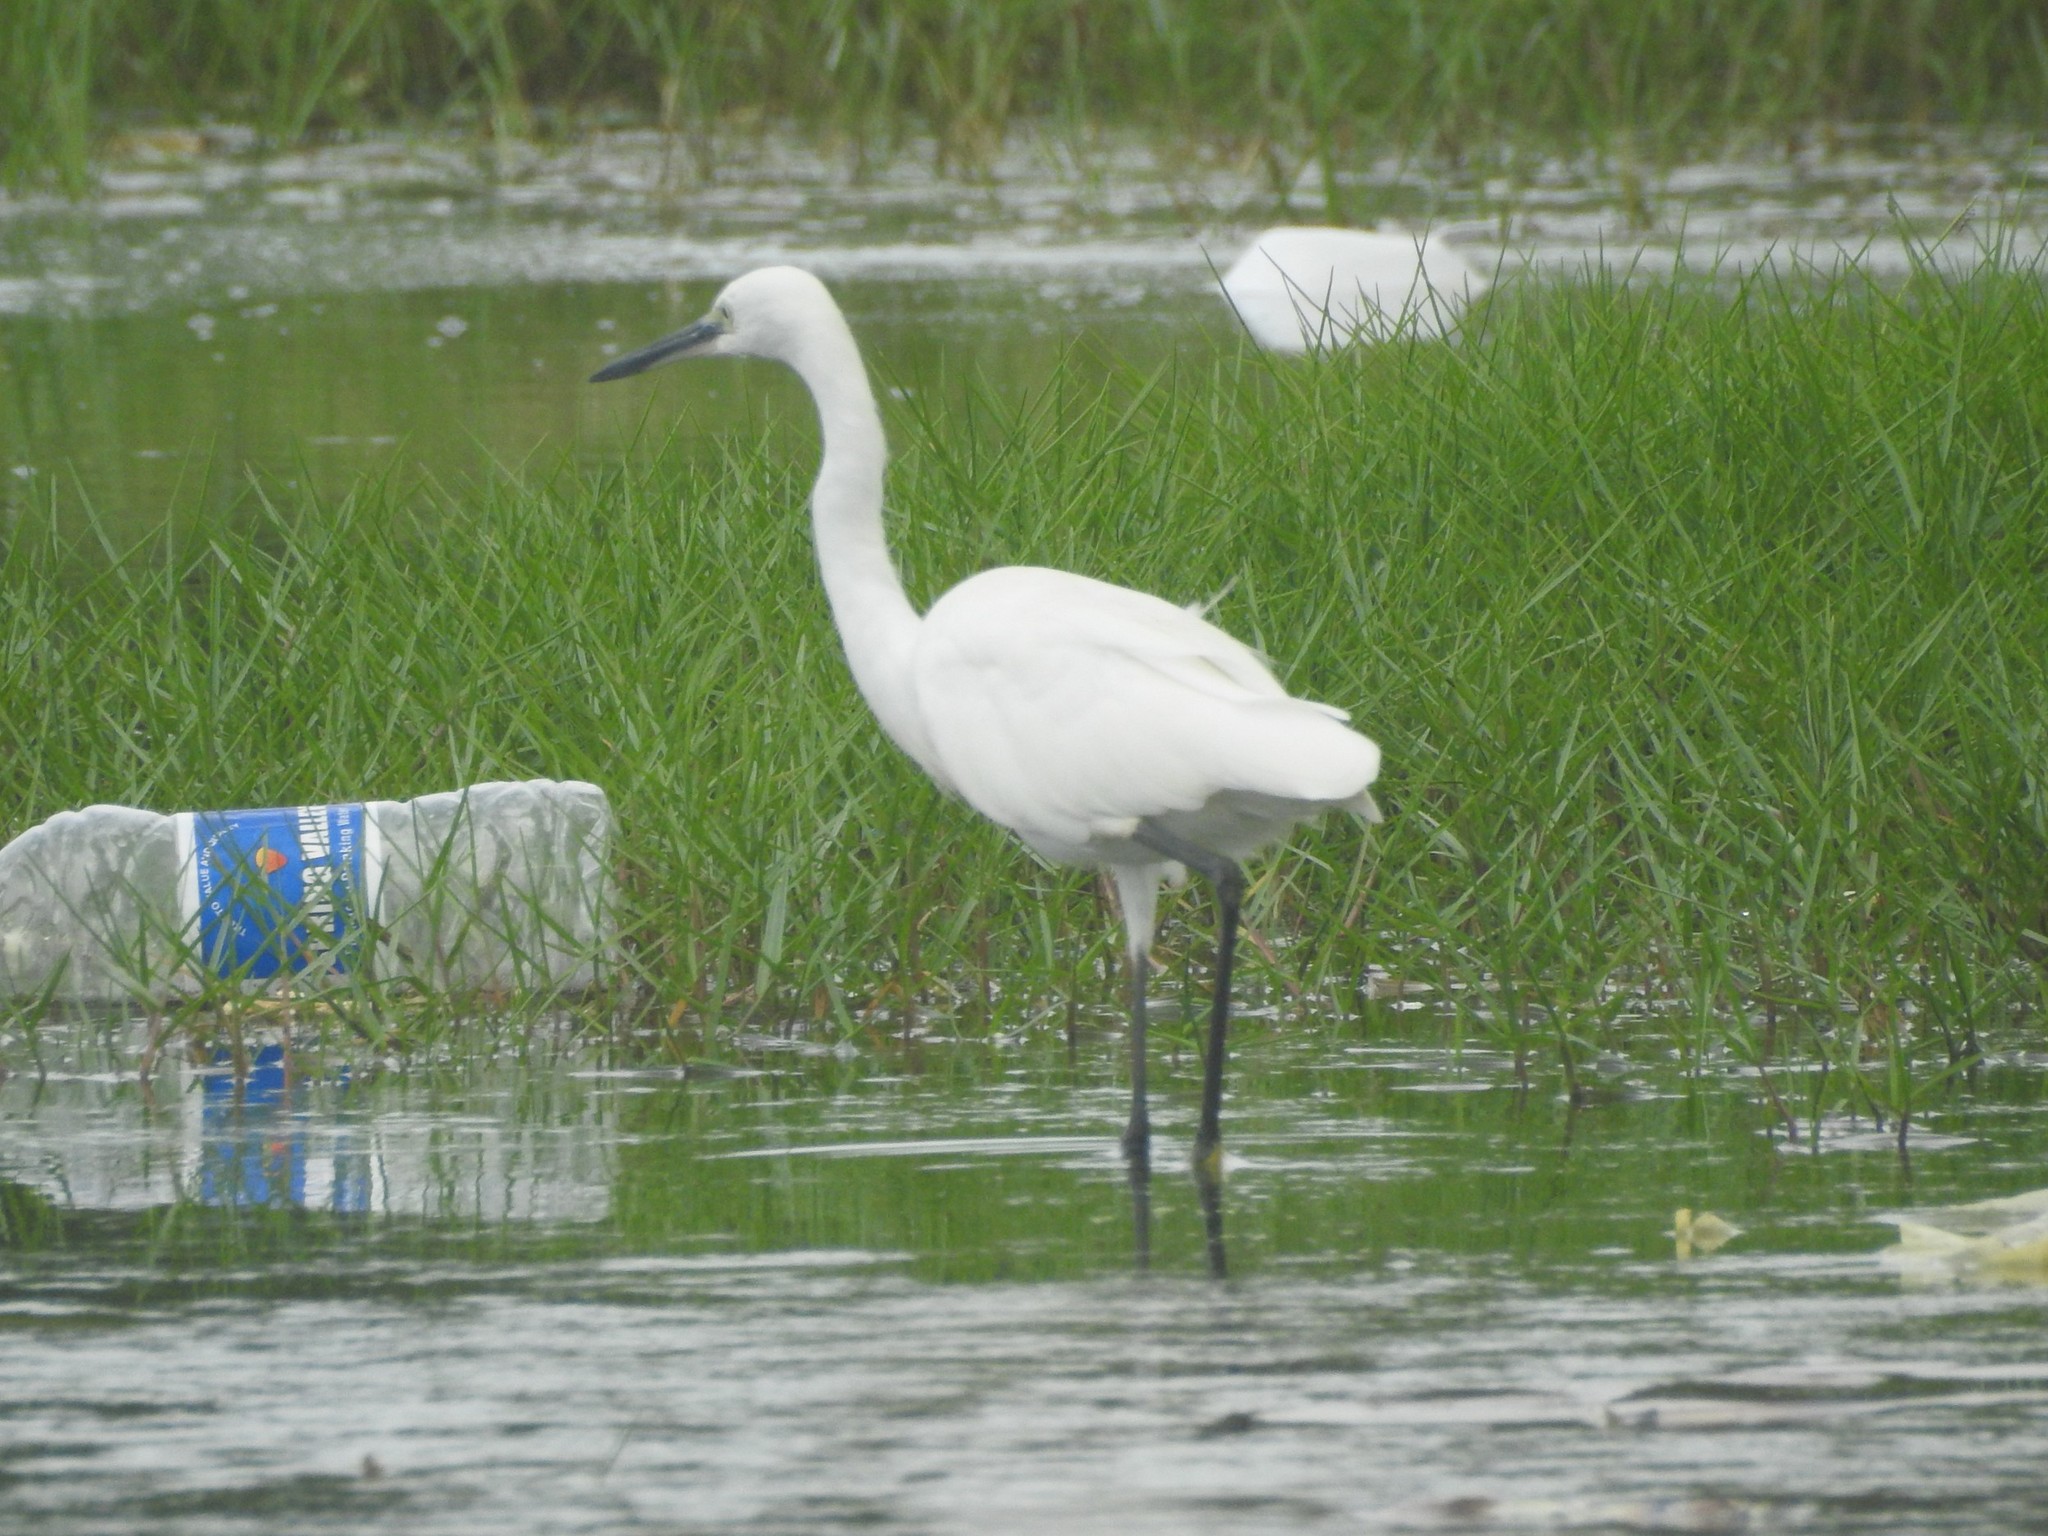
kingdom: Animalia
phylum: Chordata
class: Aves
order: Pelecaniformes
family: Ardeidae
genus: Egretta
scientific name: Egretta garzetta
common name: Little egret
